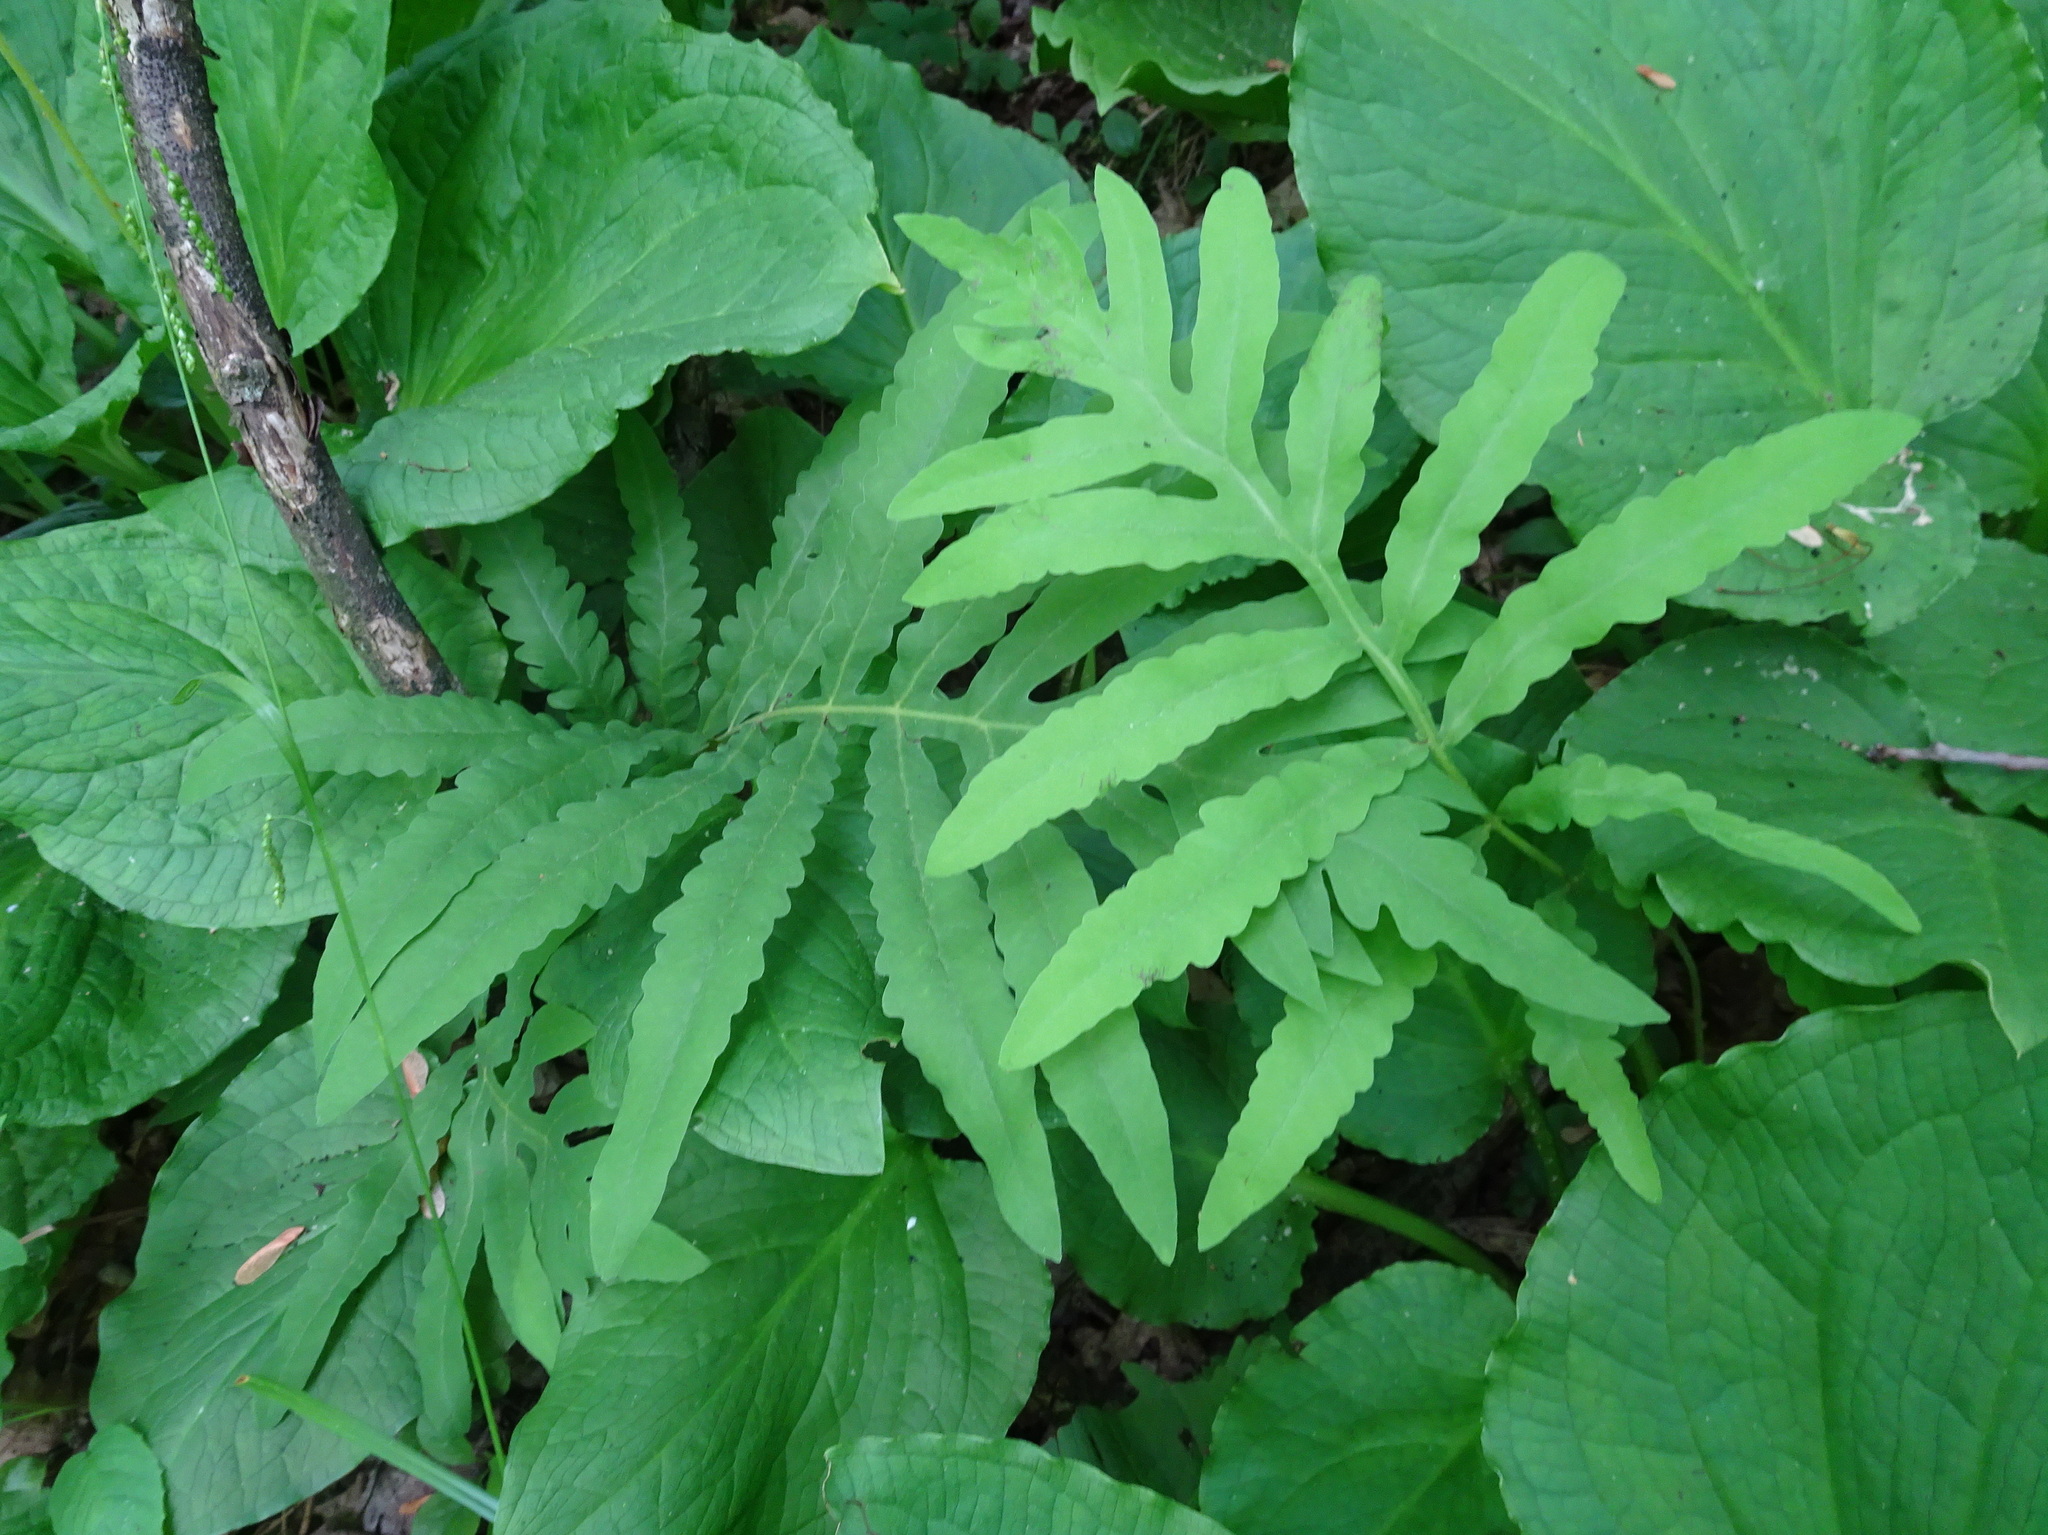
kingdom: Plantae
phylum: Tracheophyta
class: Polypodiopsida
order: Polypodiales
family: Onocleaceae
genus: Onoclea
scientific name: Onoclea sensibilis
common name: Sensitive fern
